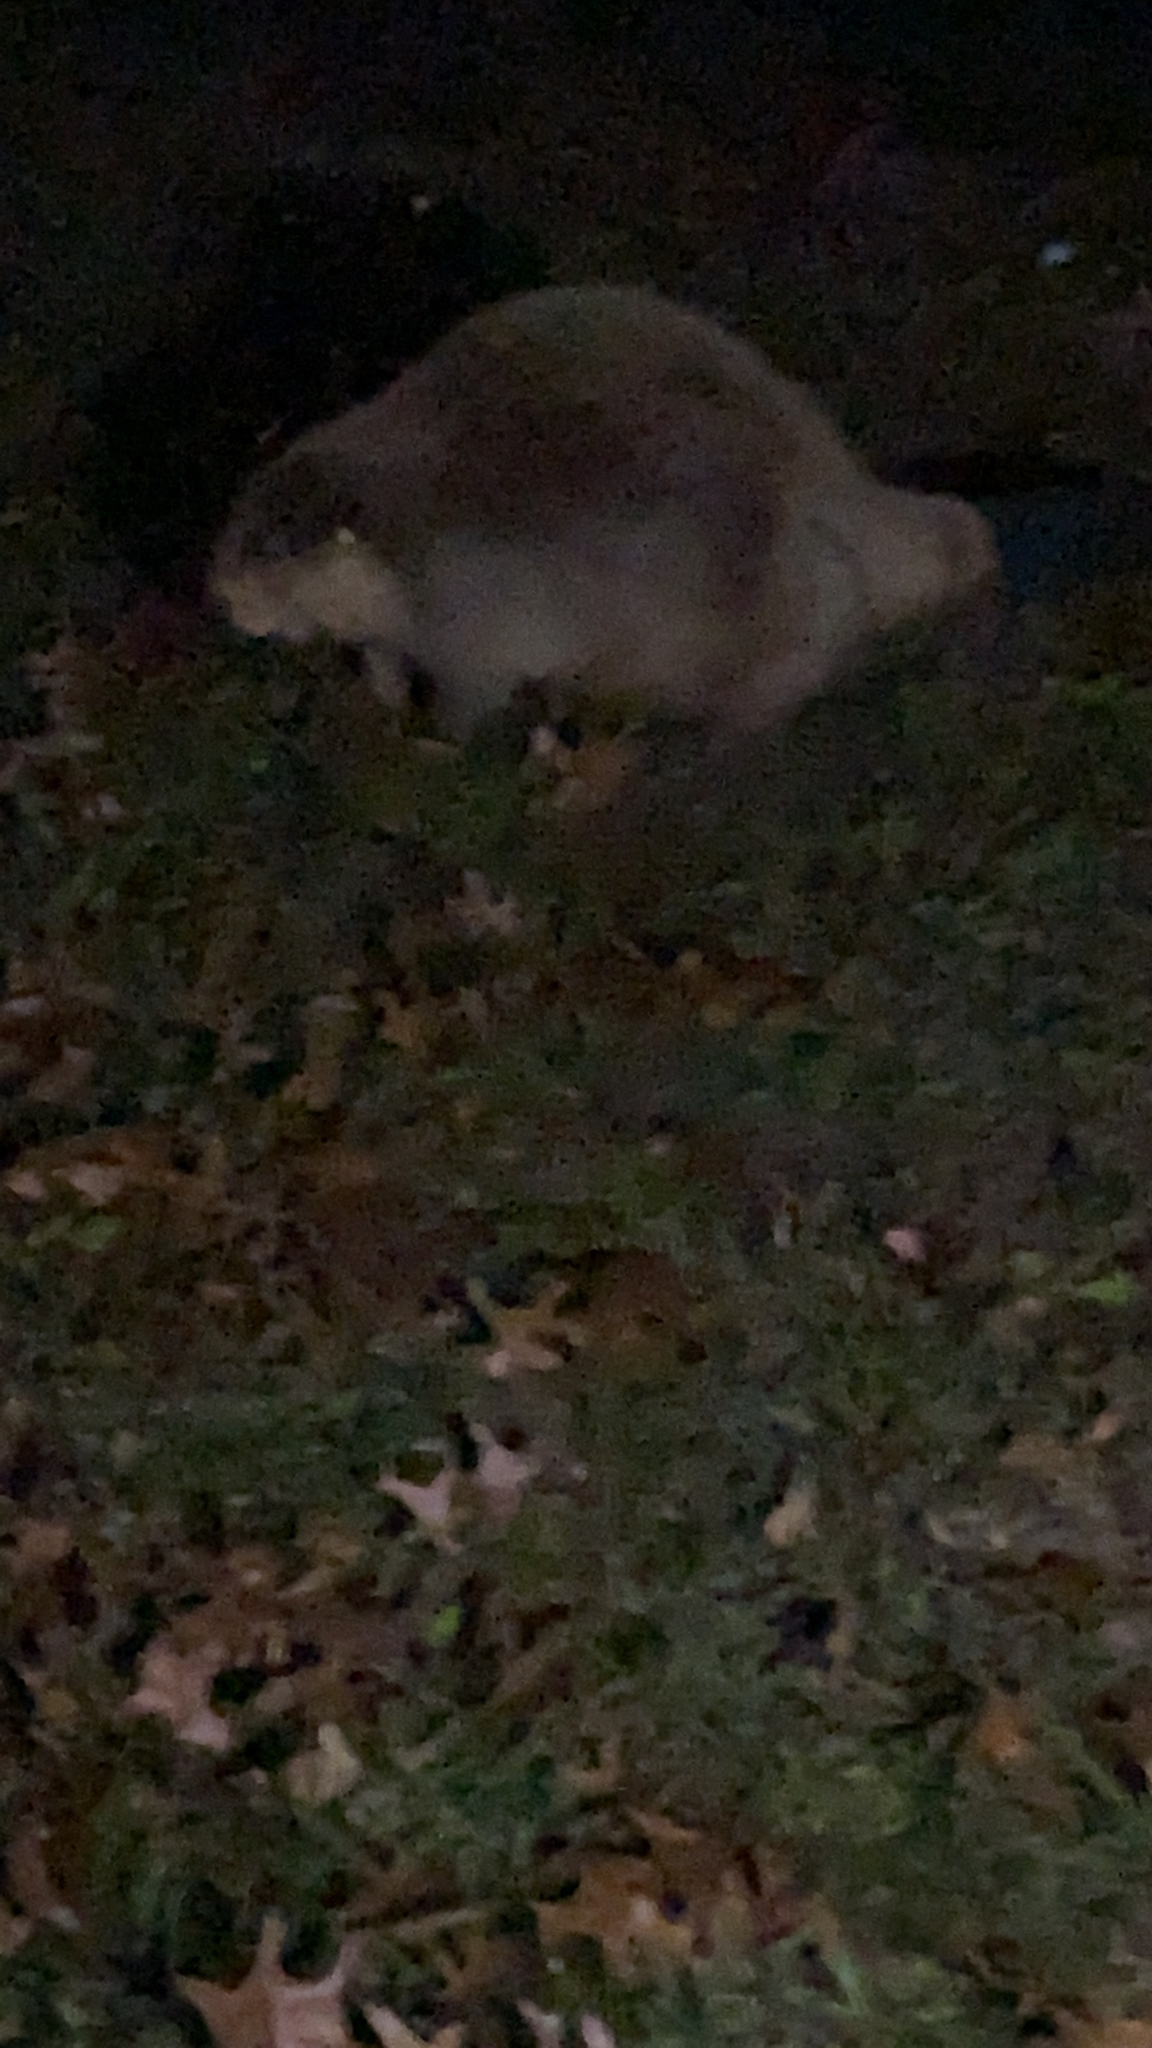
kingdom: Animalia
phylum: Chordata
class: Mammalia
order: Rodentia
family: Castoridae
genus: Castor
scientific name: Castor canadensis
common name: American beaver
